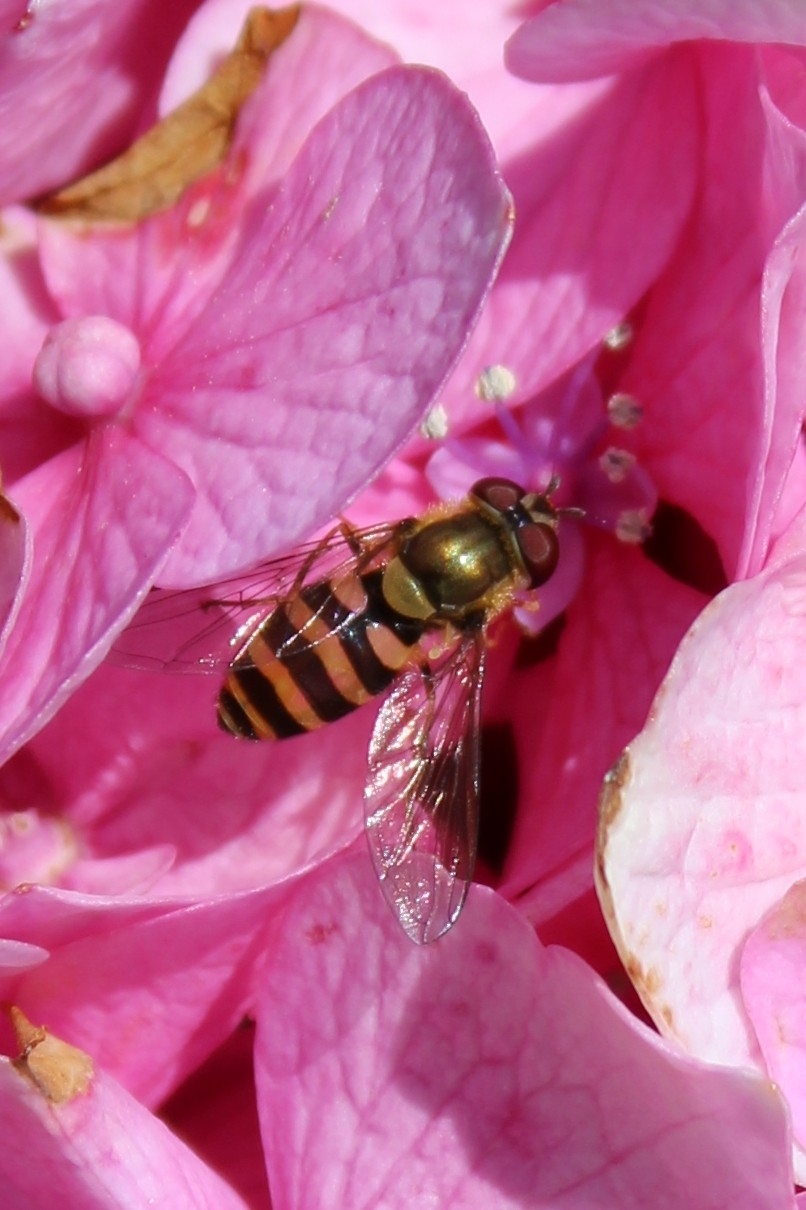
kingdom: Animalia
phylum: Arthropoda
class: Insecta
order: Diptera
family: Syrphidae
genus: Syrphus
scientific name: Syrphus
